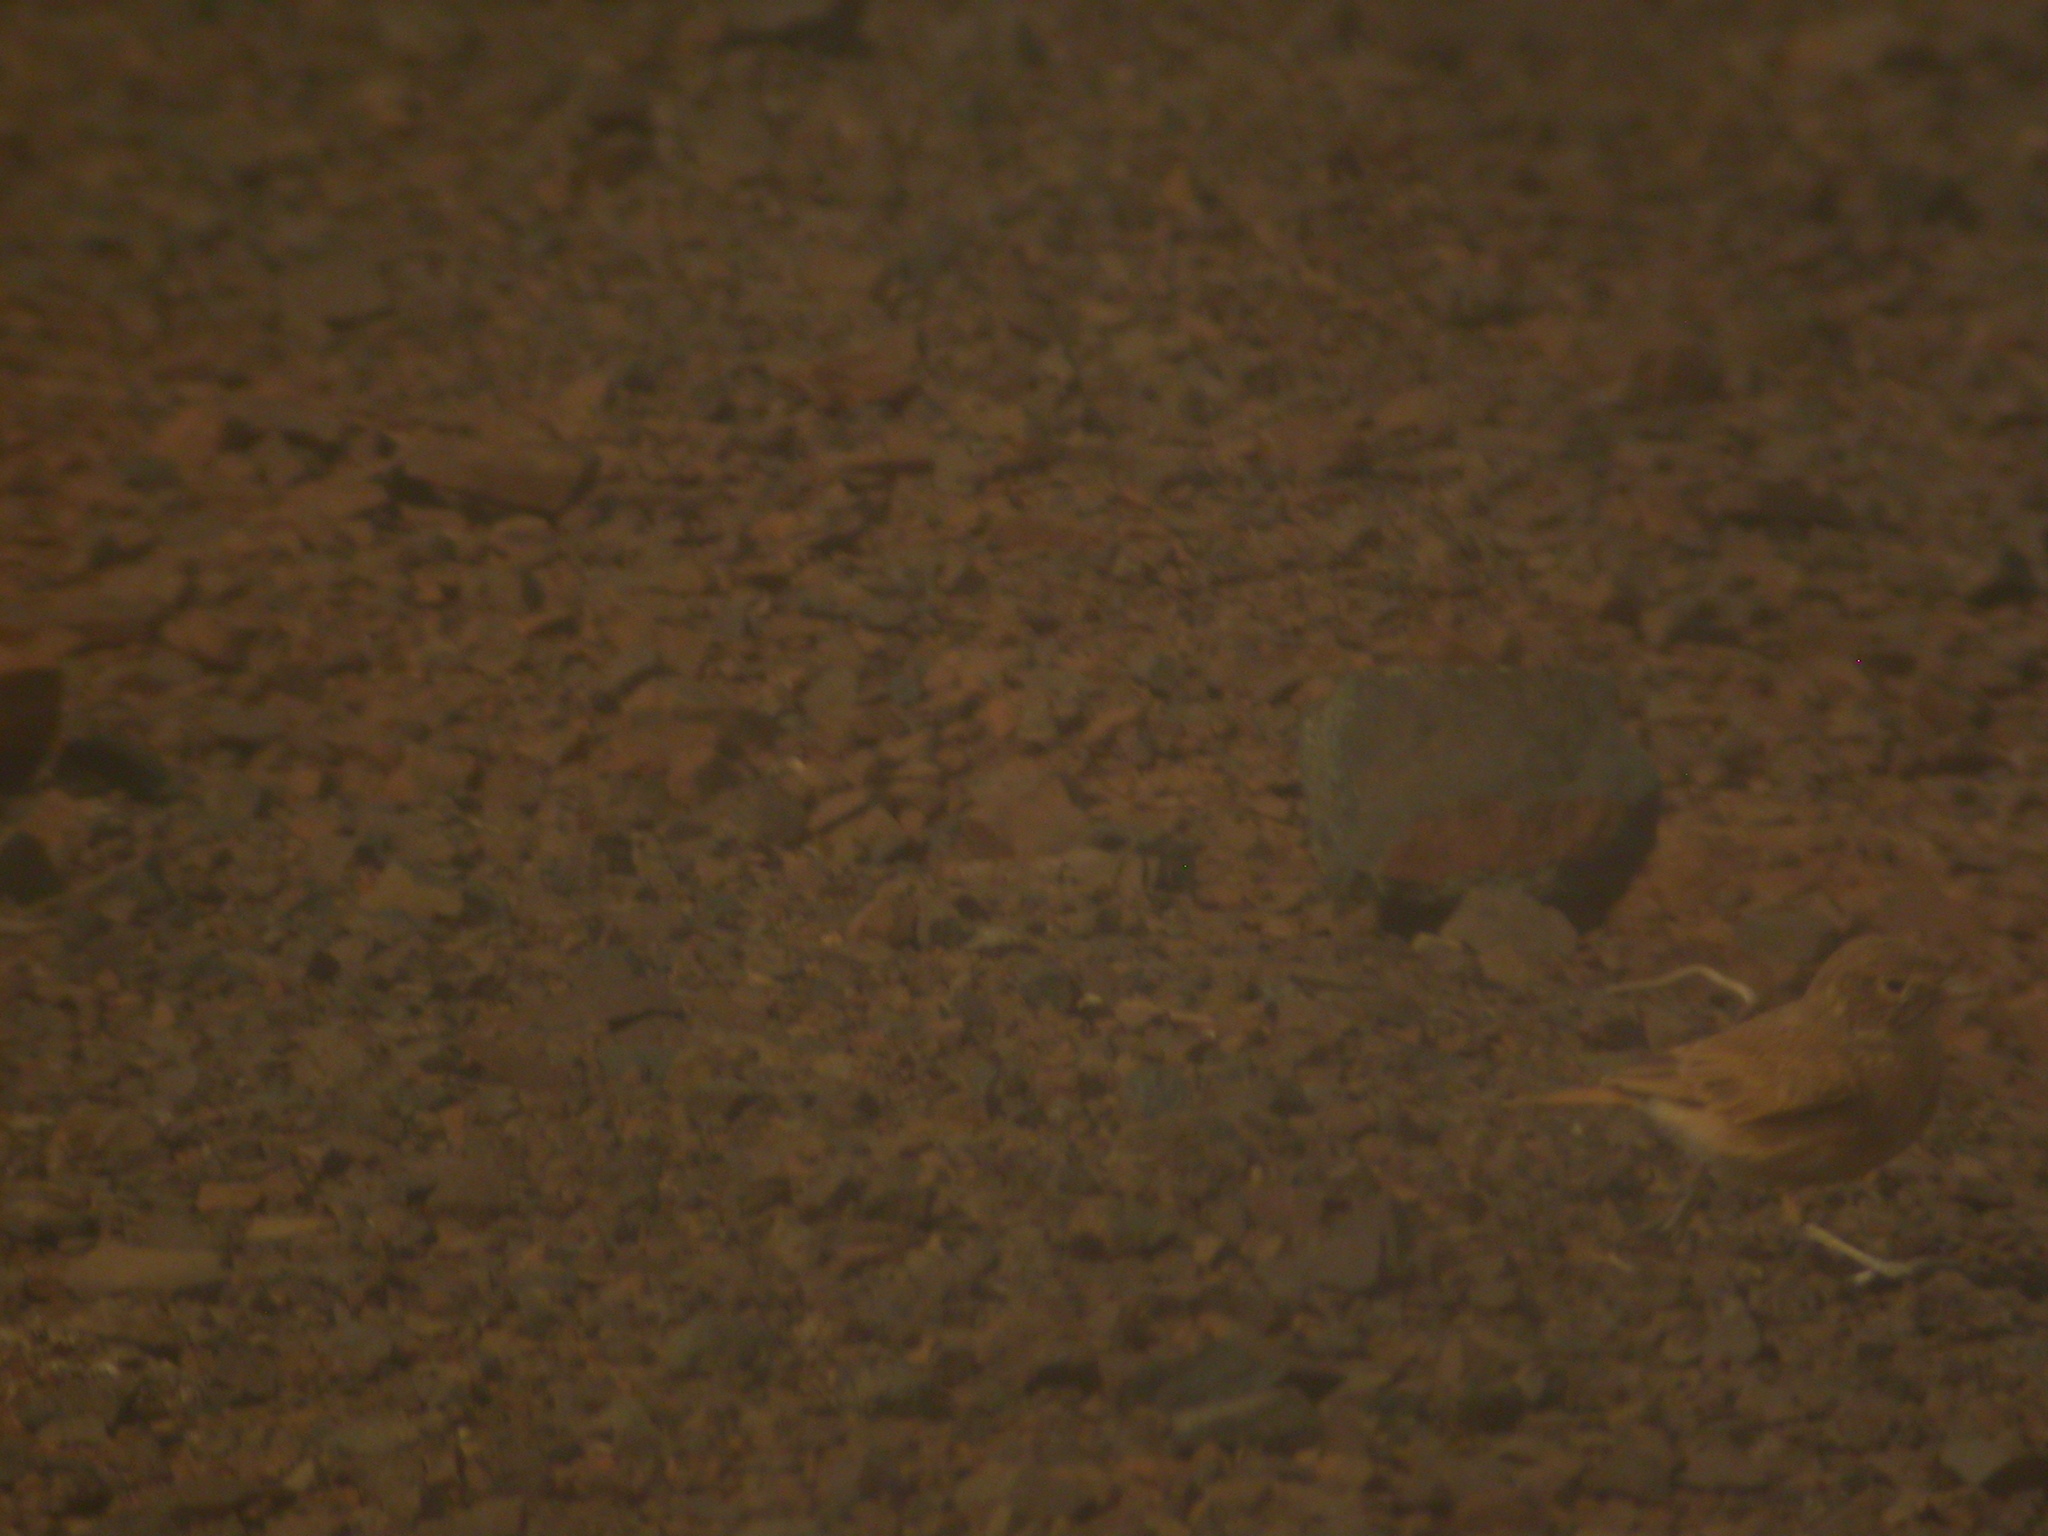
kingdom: Animalia
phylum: Chordata
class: Aves
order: Passeriformes
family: Alaudidae
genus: Ammomanes
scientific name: Ammomanes cinctura
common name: Bar-tailed lark
